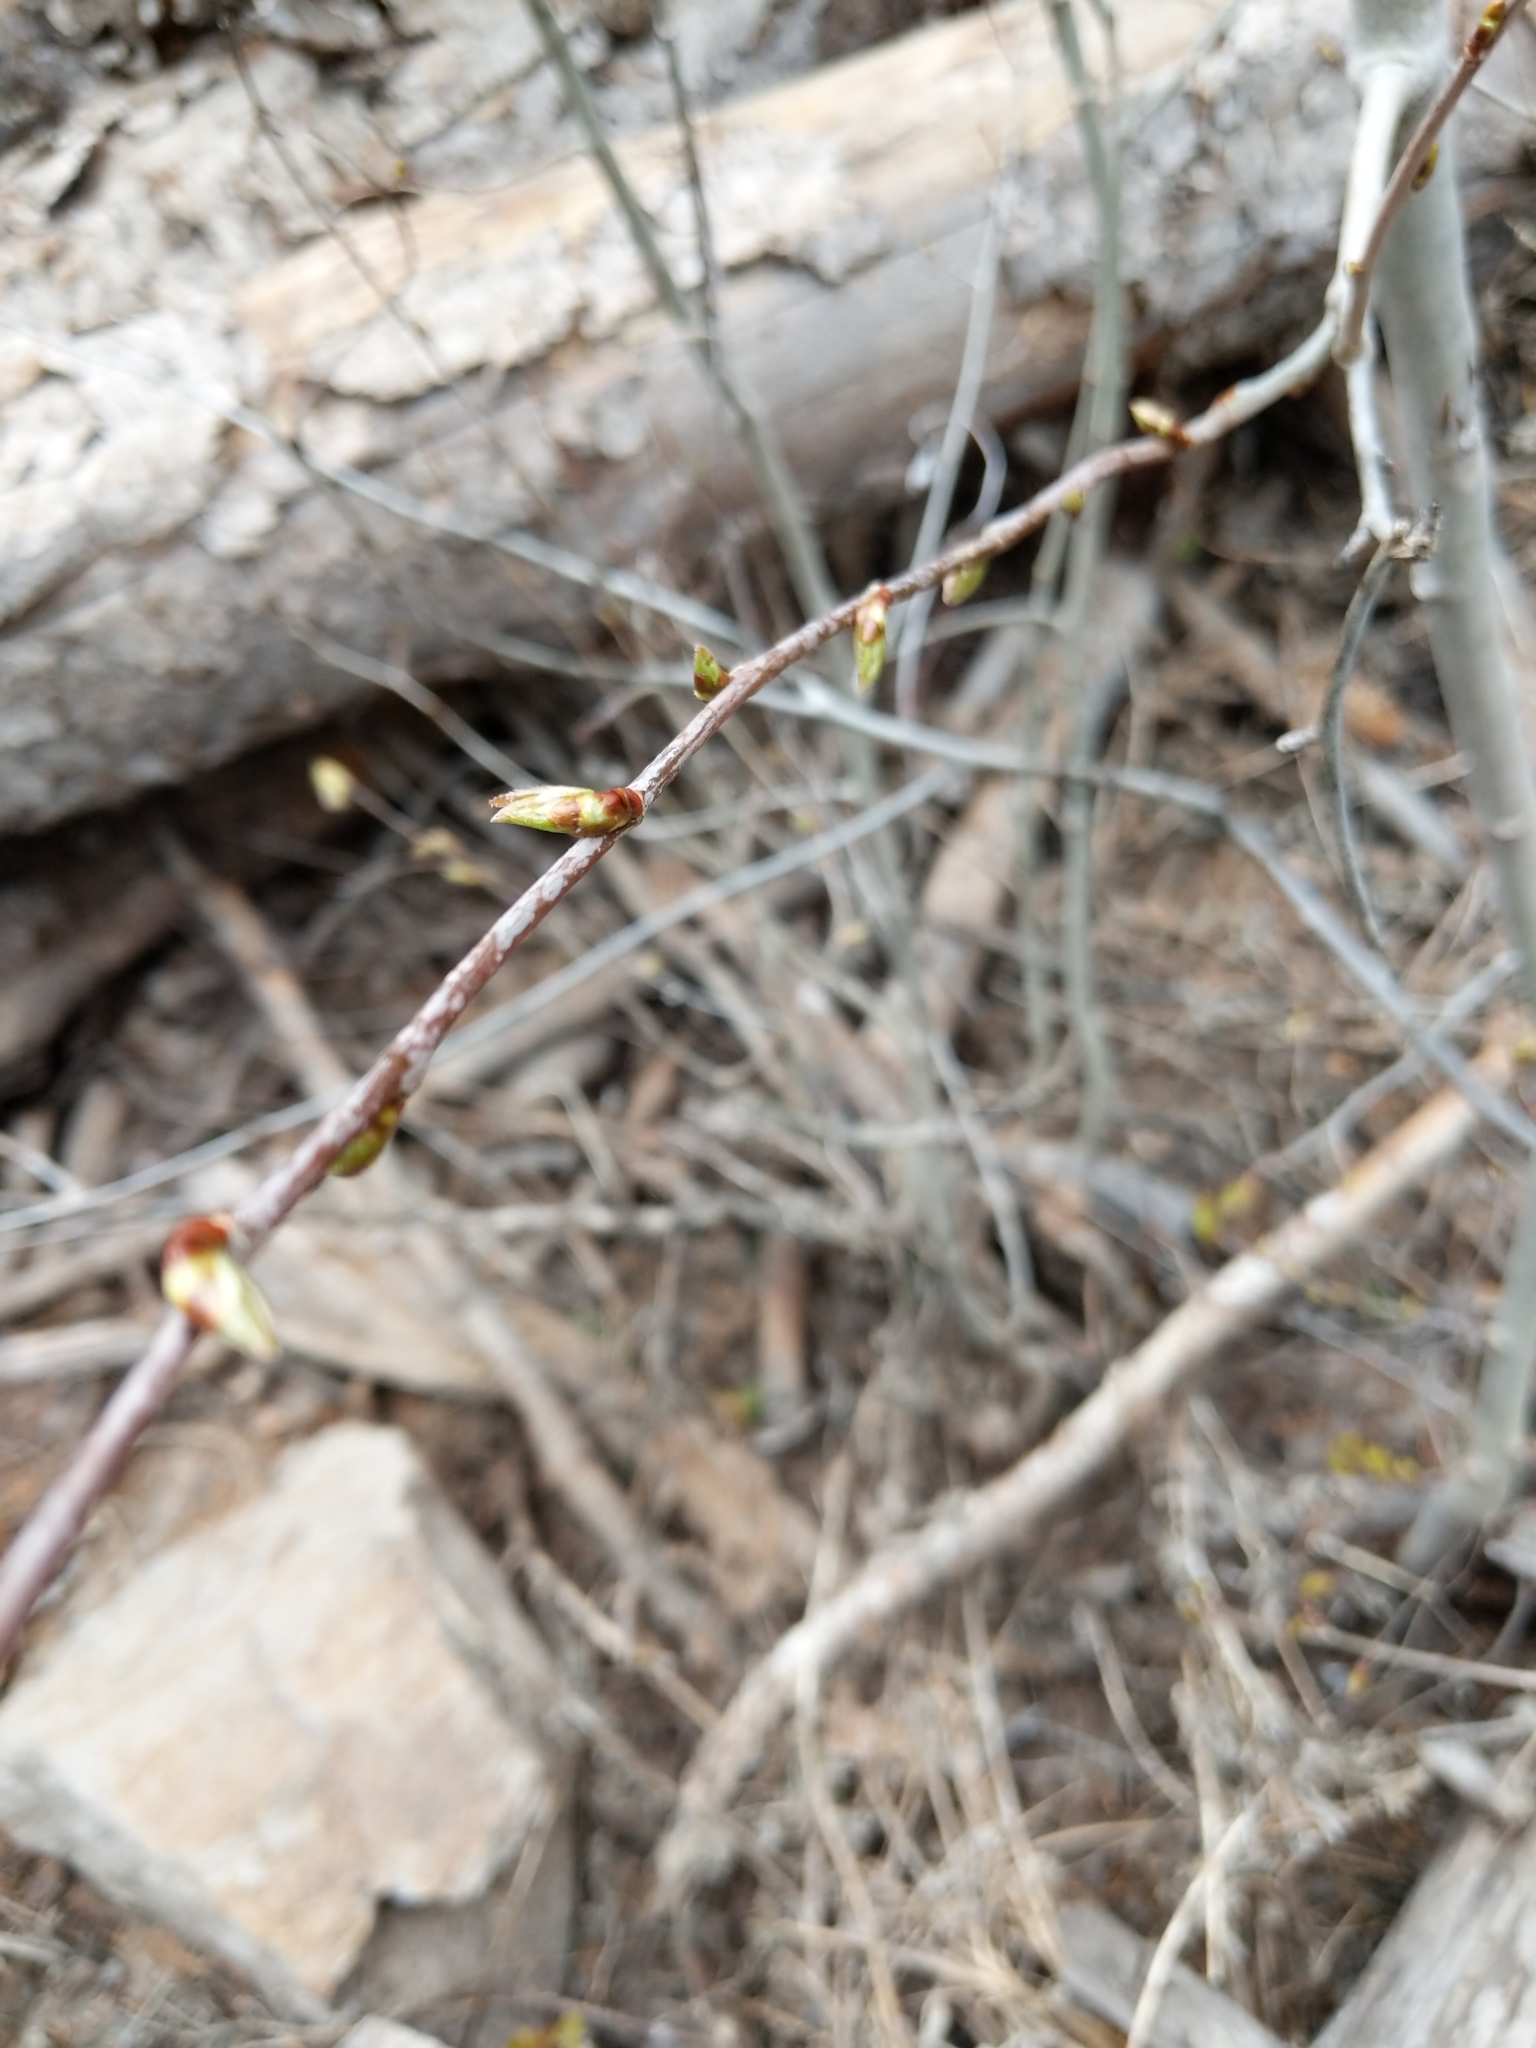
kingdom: Plantae
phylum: Tracheophyta
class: Magnoliopsida
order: Malpighiales
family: Salicaceae
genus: Populus
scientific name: Populus tremuloides
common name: Quaking aspen
